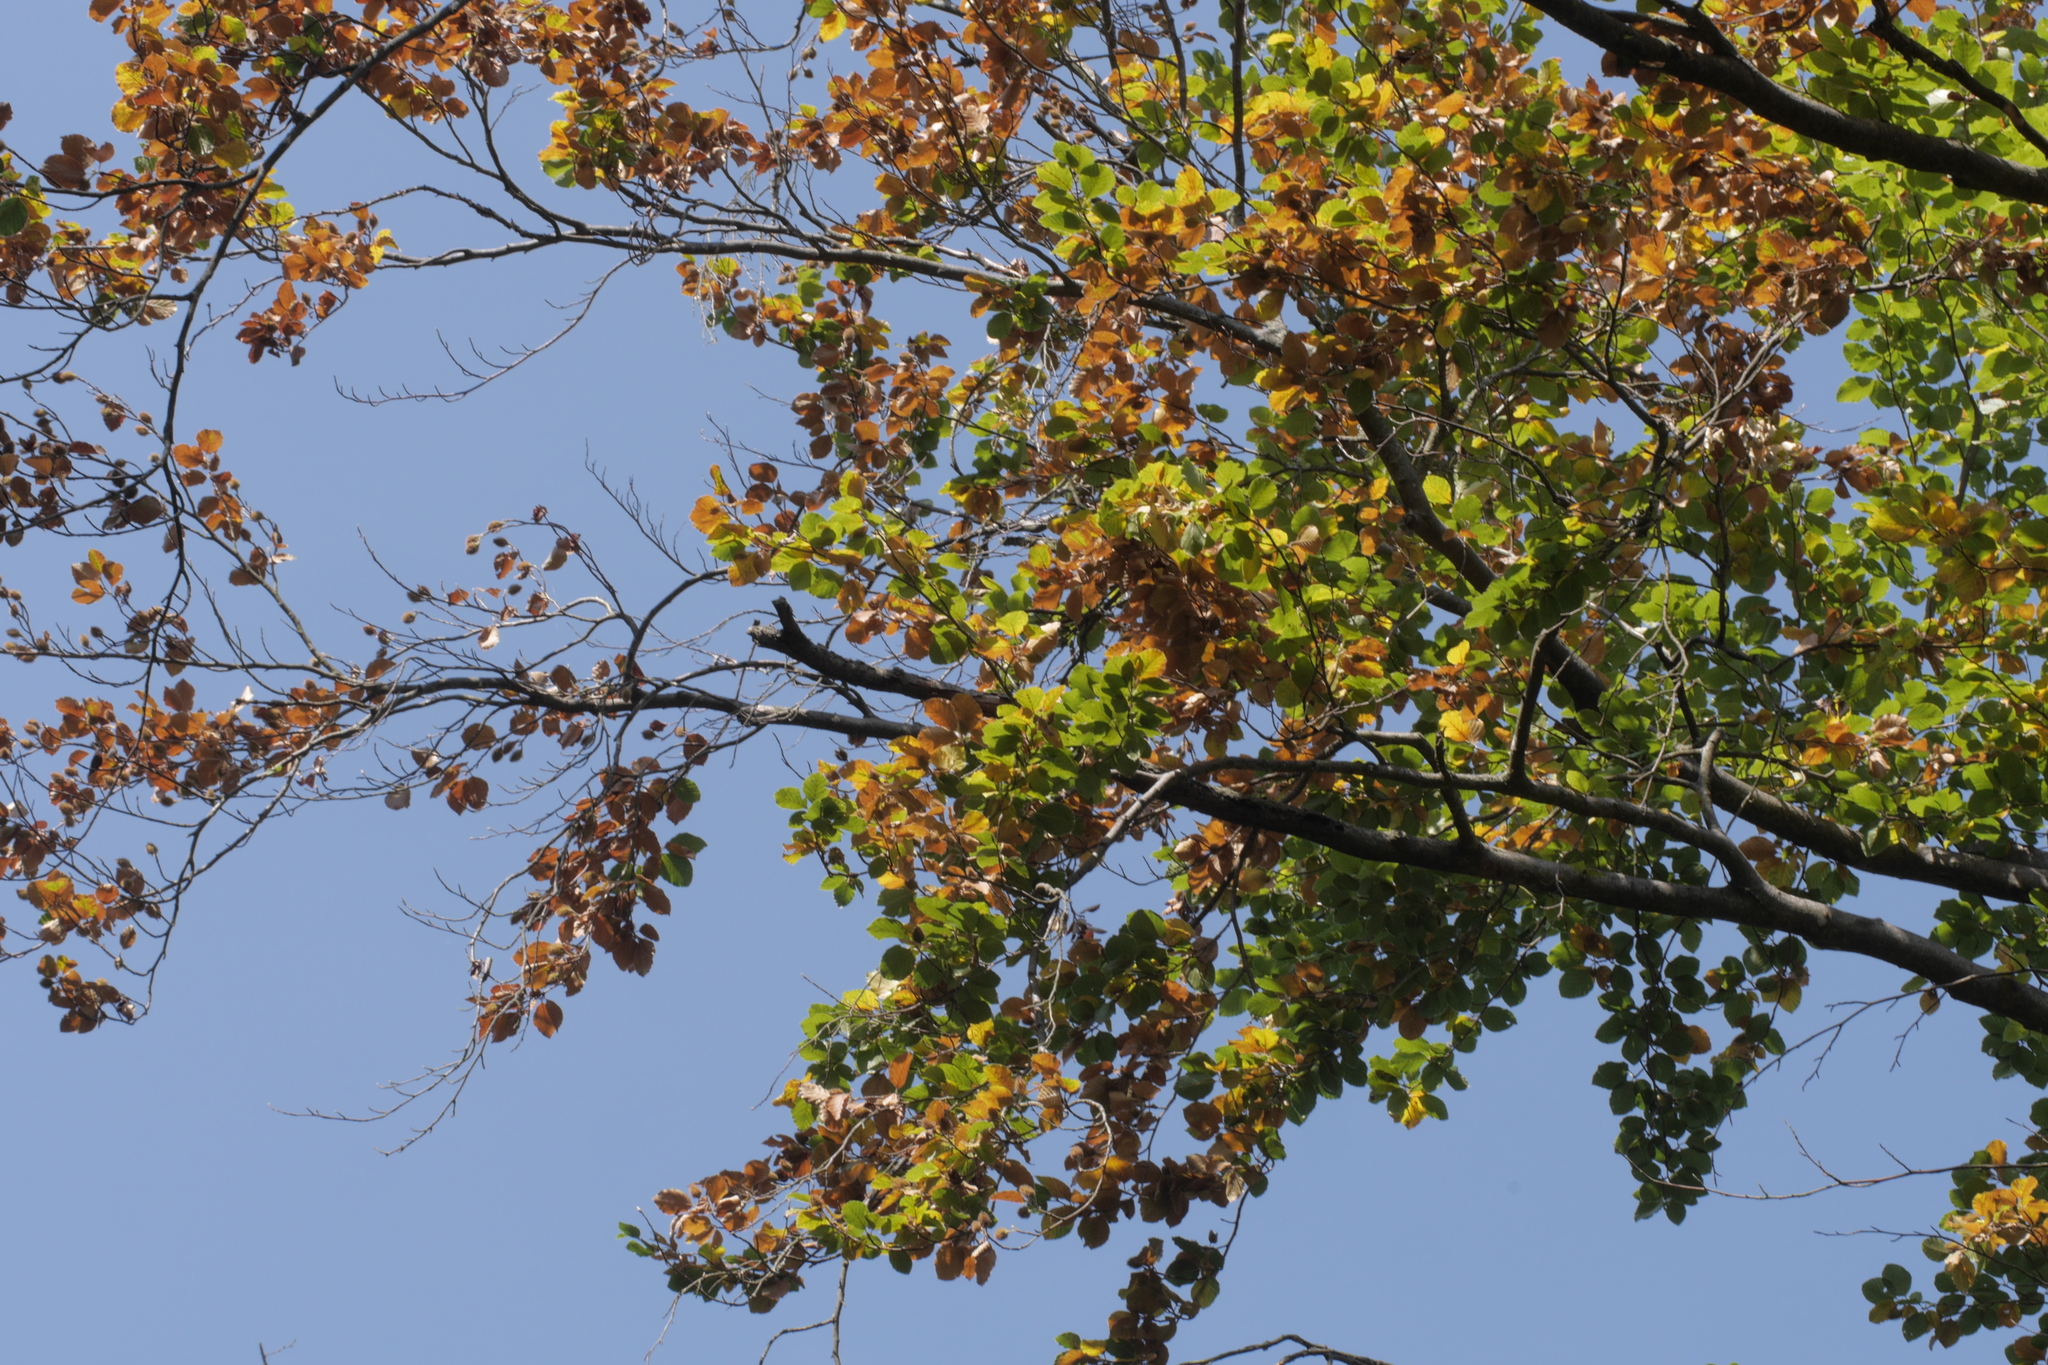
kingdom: Plantae
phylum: Tracheophyta
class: Magnoliopsida
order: Fagales
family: Fagaceae
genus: Fagus
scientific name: Fagus sylvatica
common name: Beech
